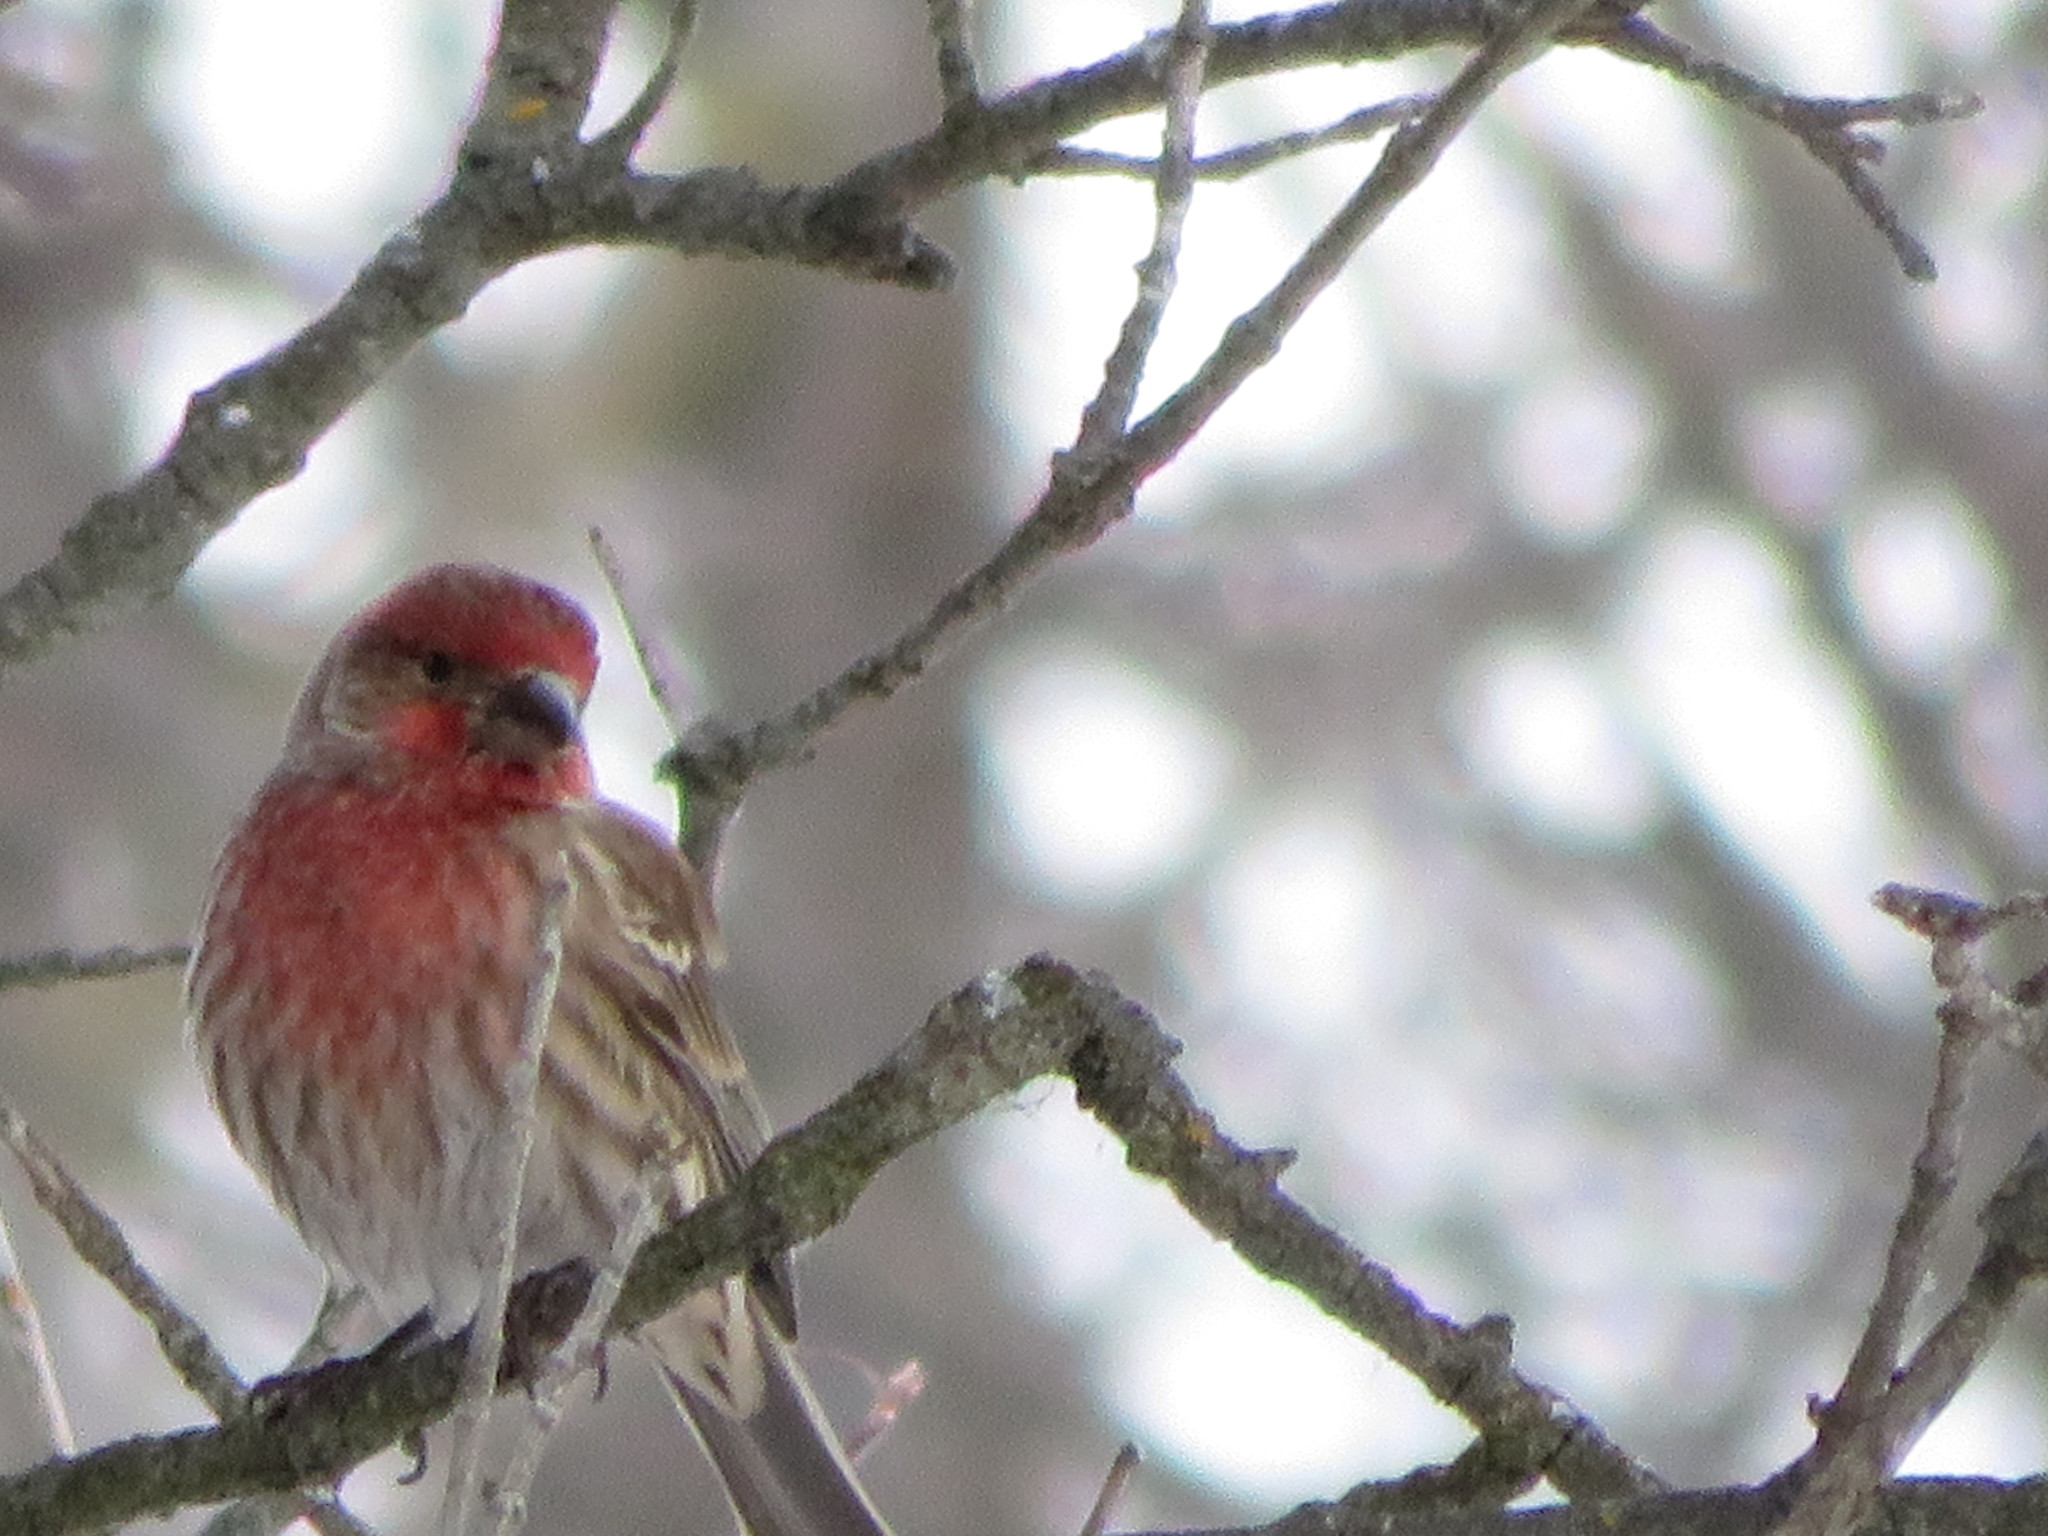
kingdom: Animalia
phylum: Chordata
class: Aves
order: Passeriformes
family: Fringillidae
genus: Haemorhous
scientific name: Haemorhous mexicanus
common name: House finch
